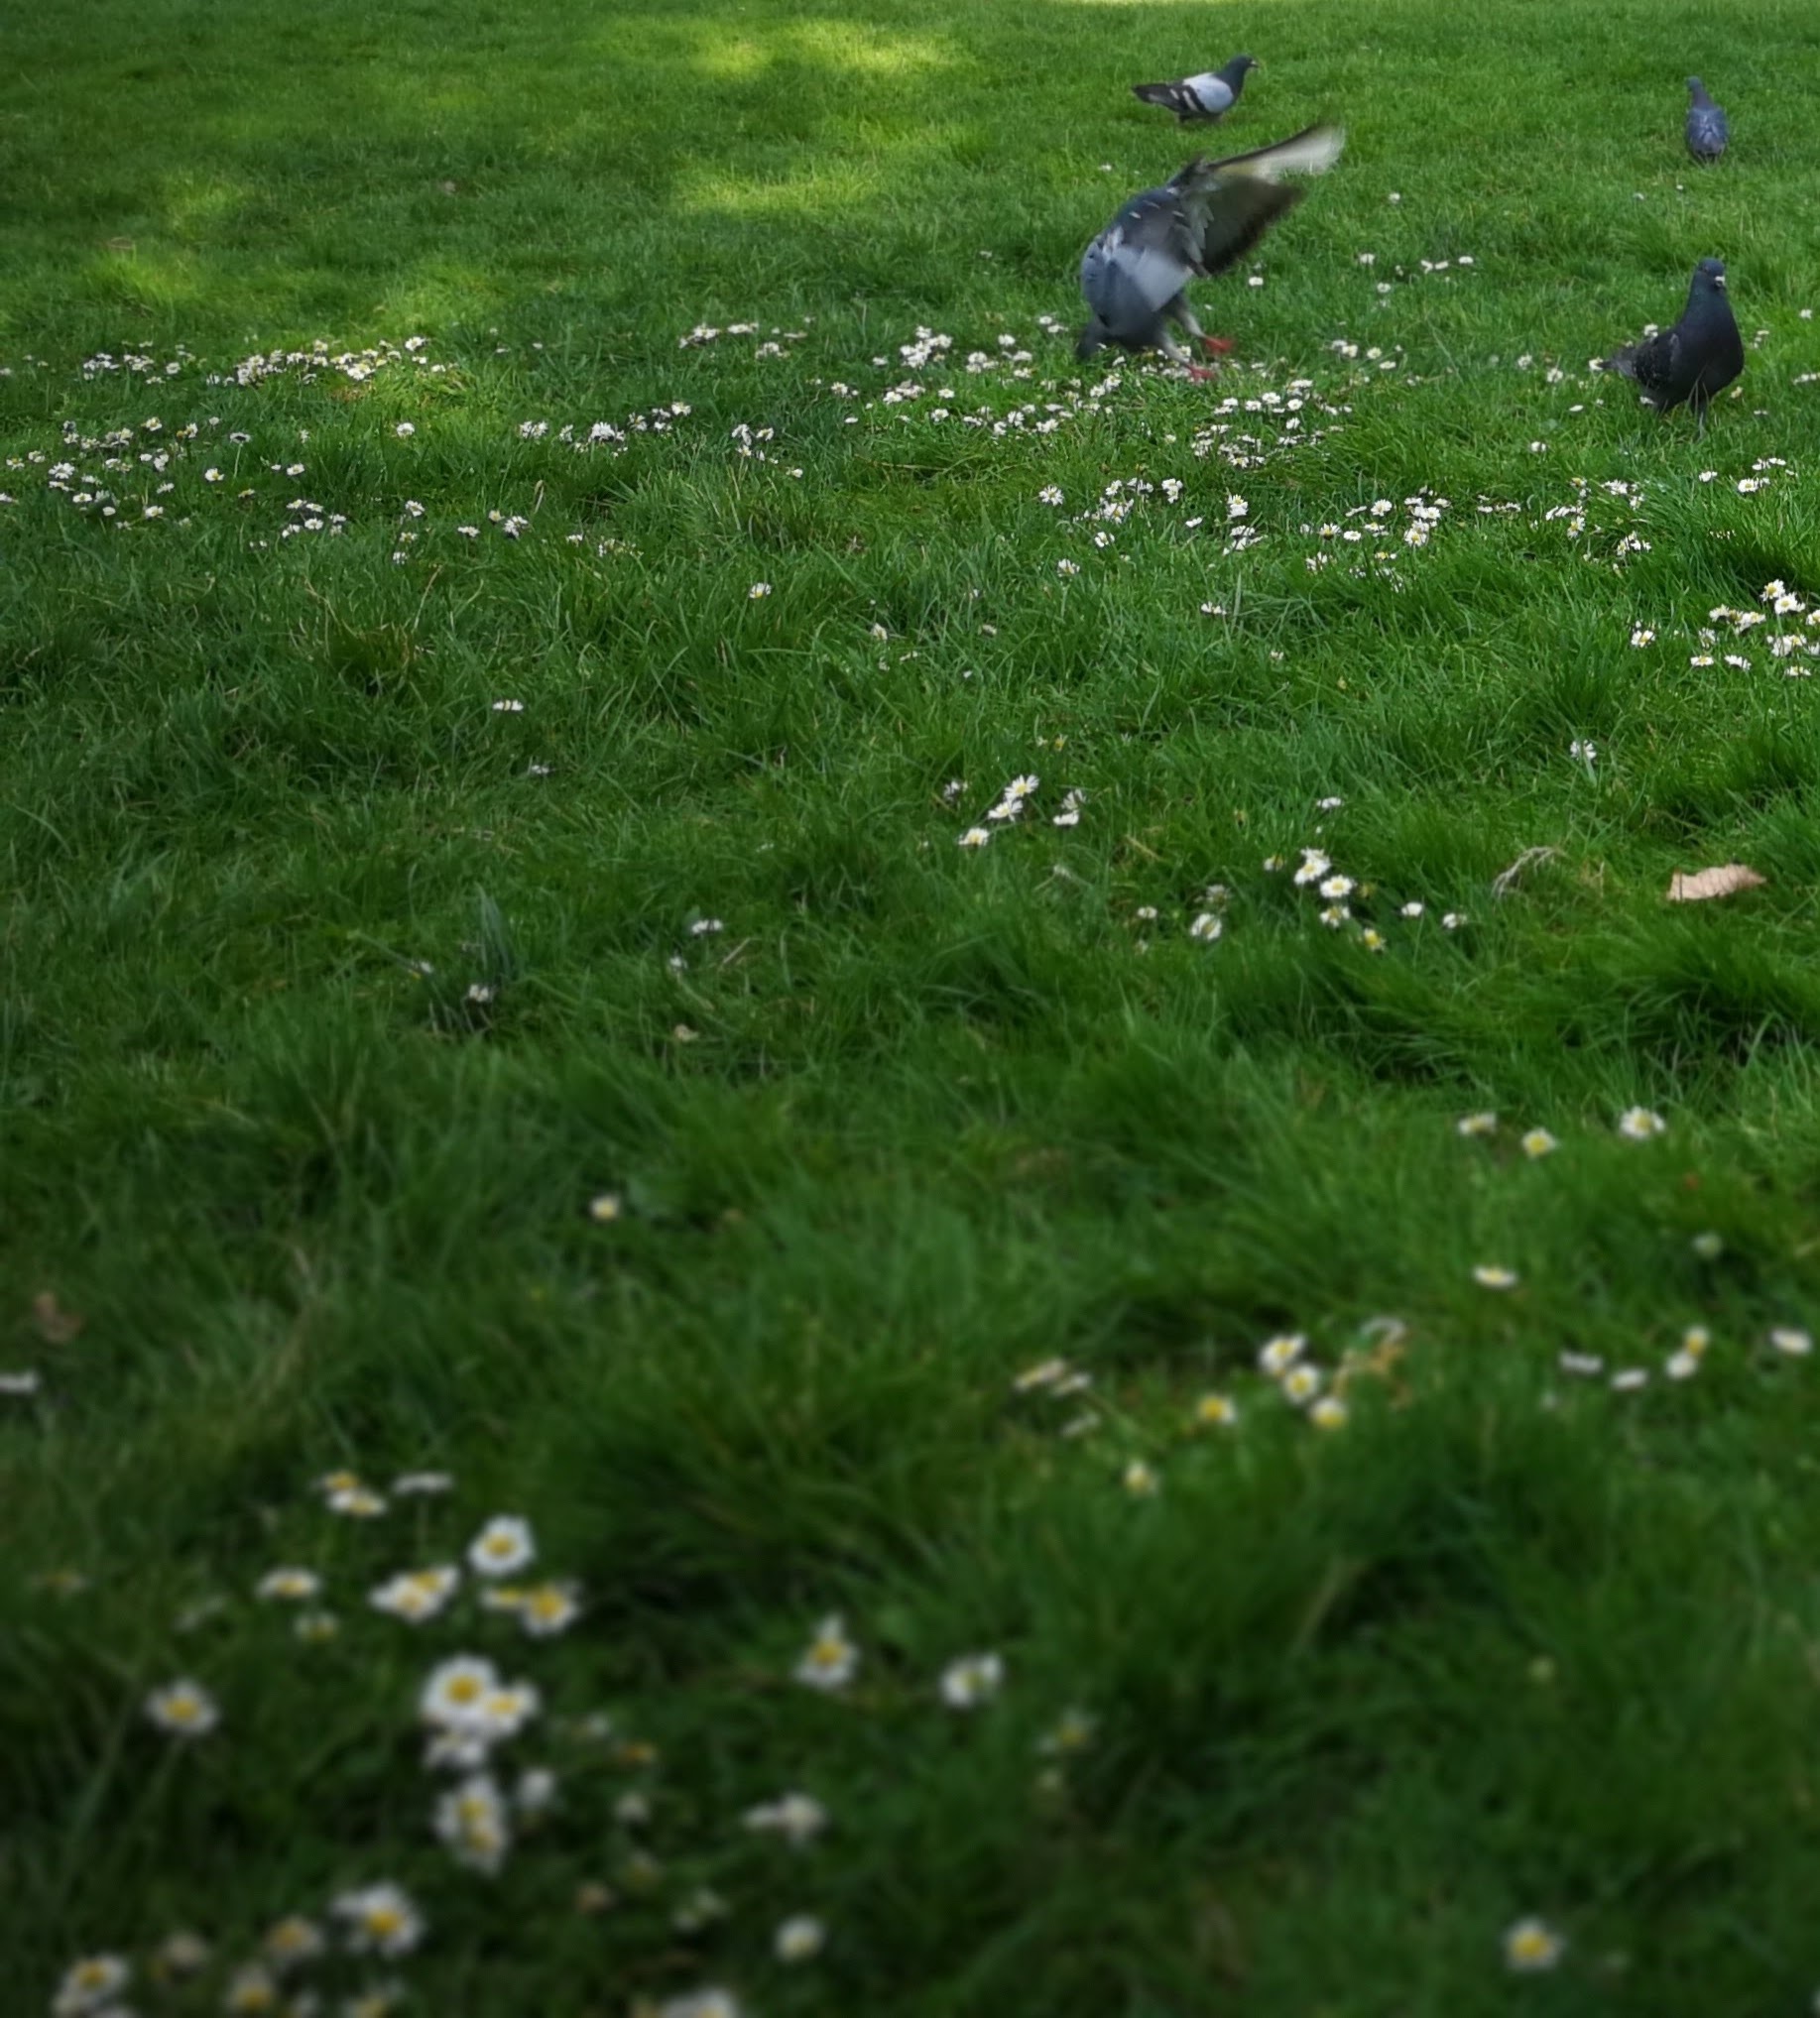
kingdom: Animalia
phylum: Chordata
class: Aves
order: Columbiformes
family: Columbidae
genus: Columba
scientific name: Columba livia
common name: Rock pigeon
